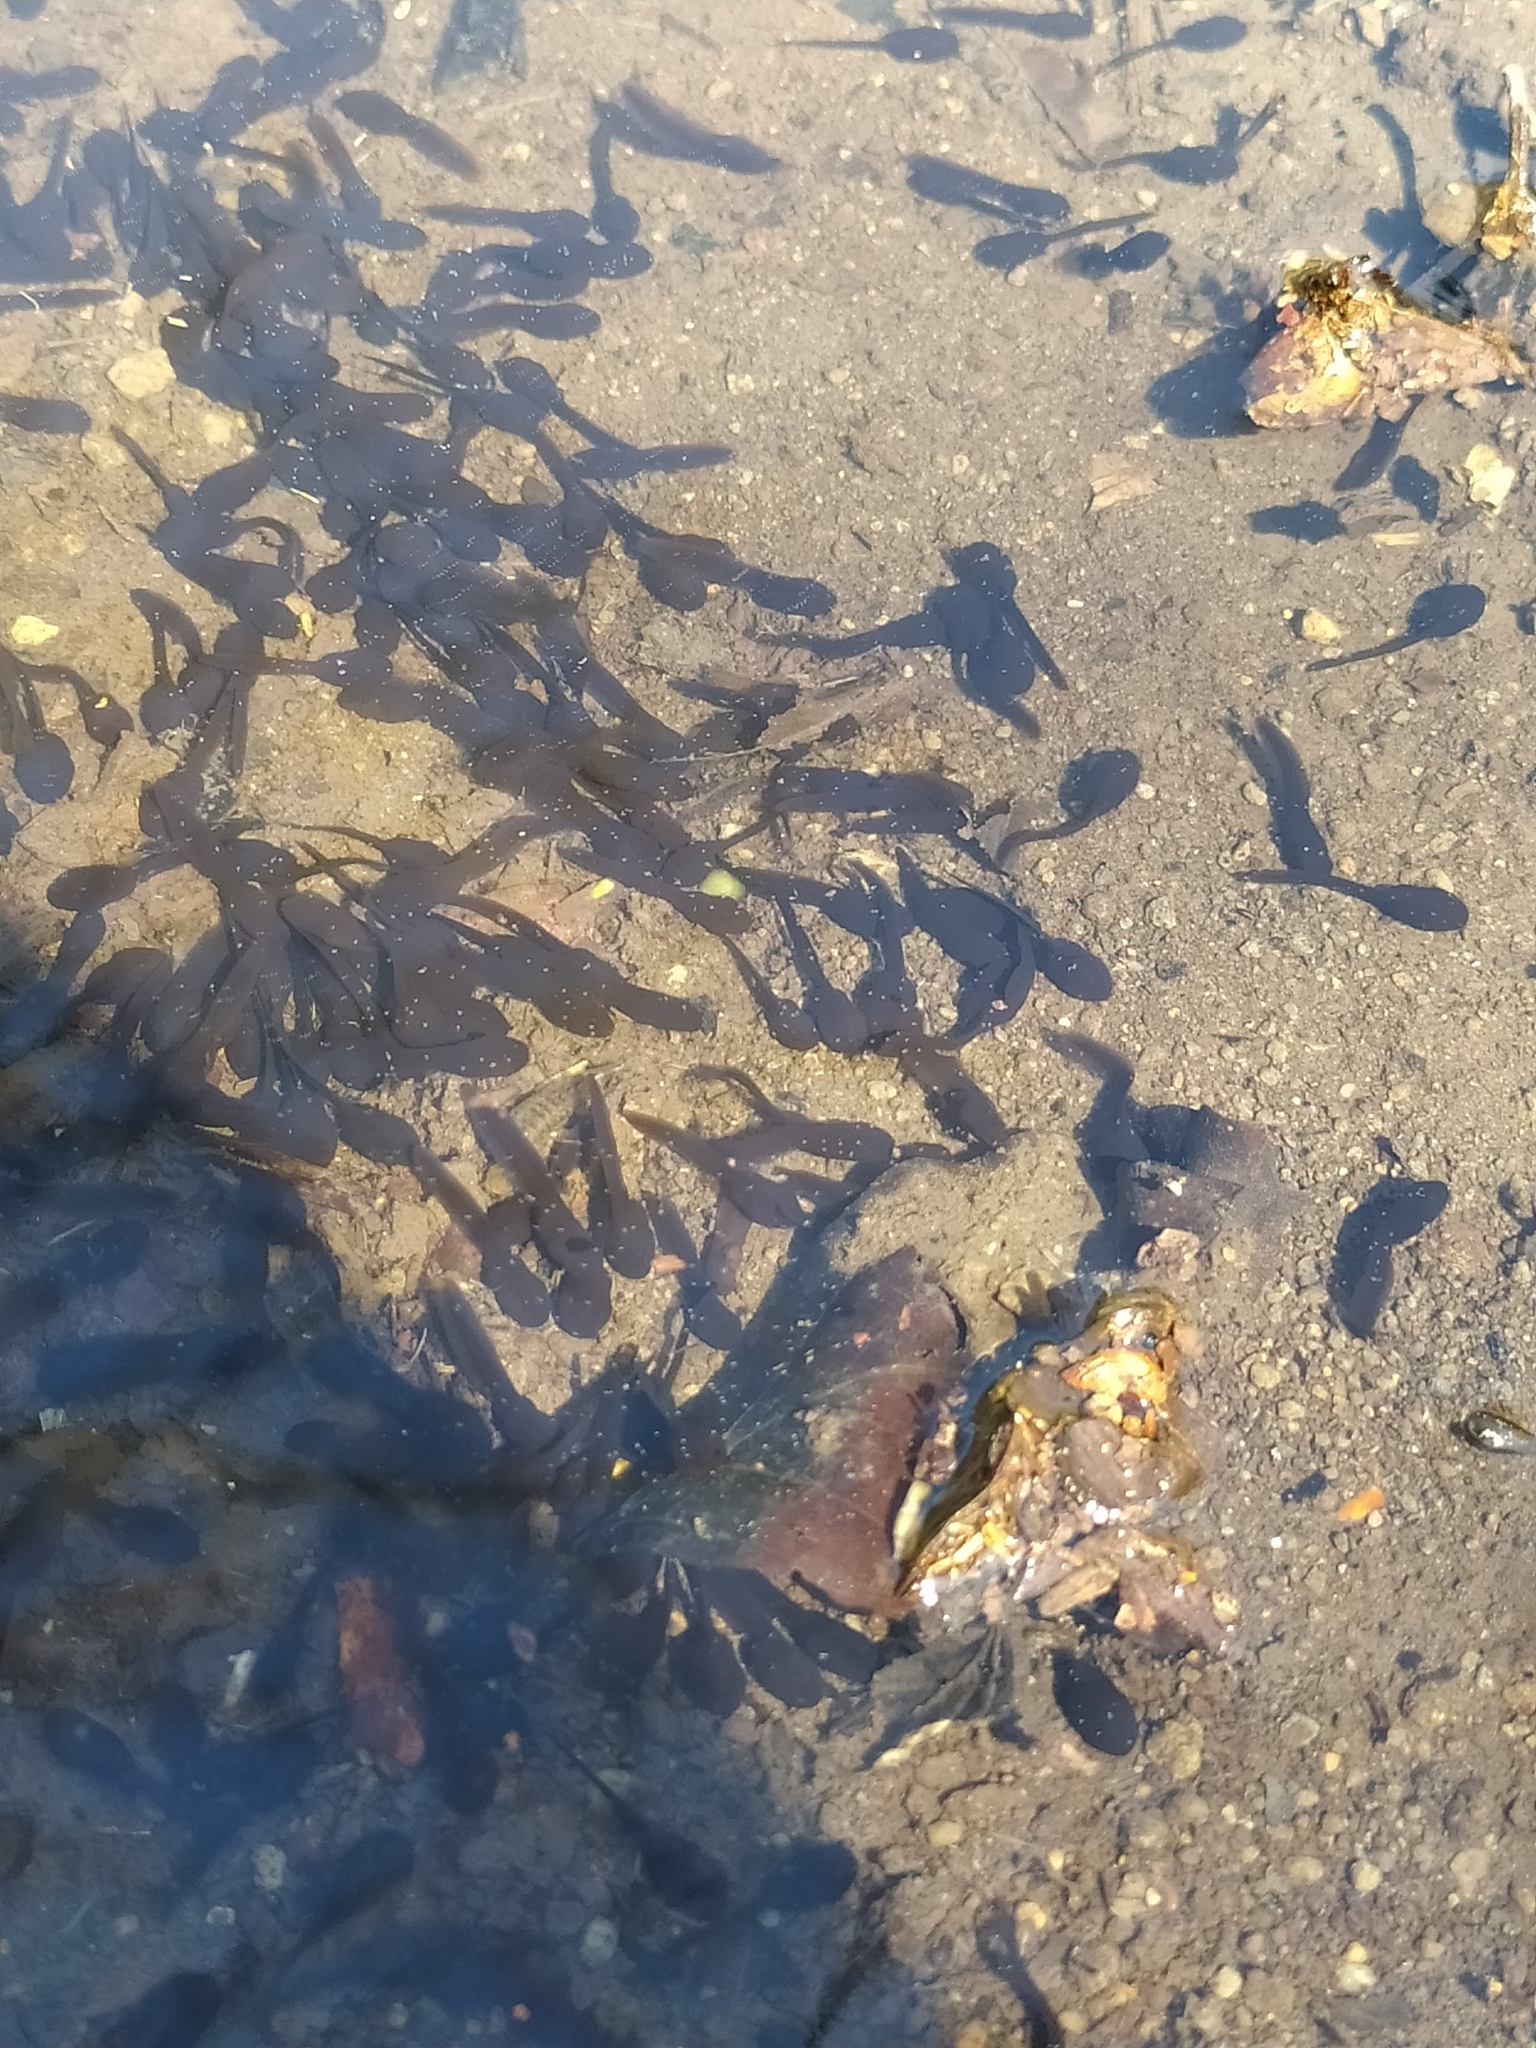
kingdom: Animalia
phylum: Chordata
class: Amphibia
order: Anura
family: Bufonidae
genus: Bufo
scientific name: Bufo bufo
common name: Common toad
